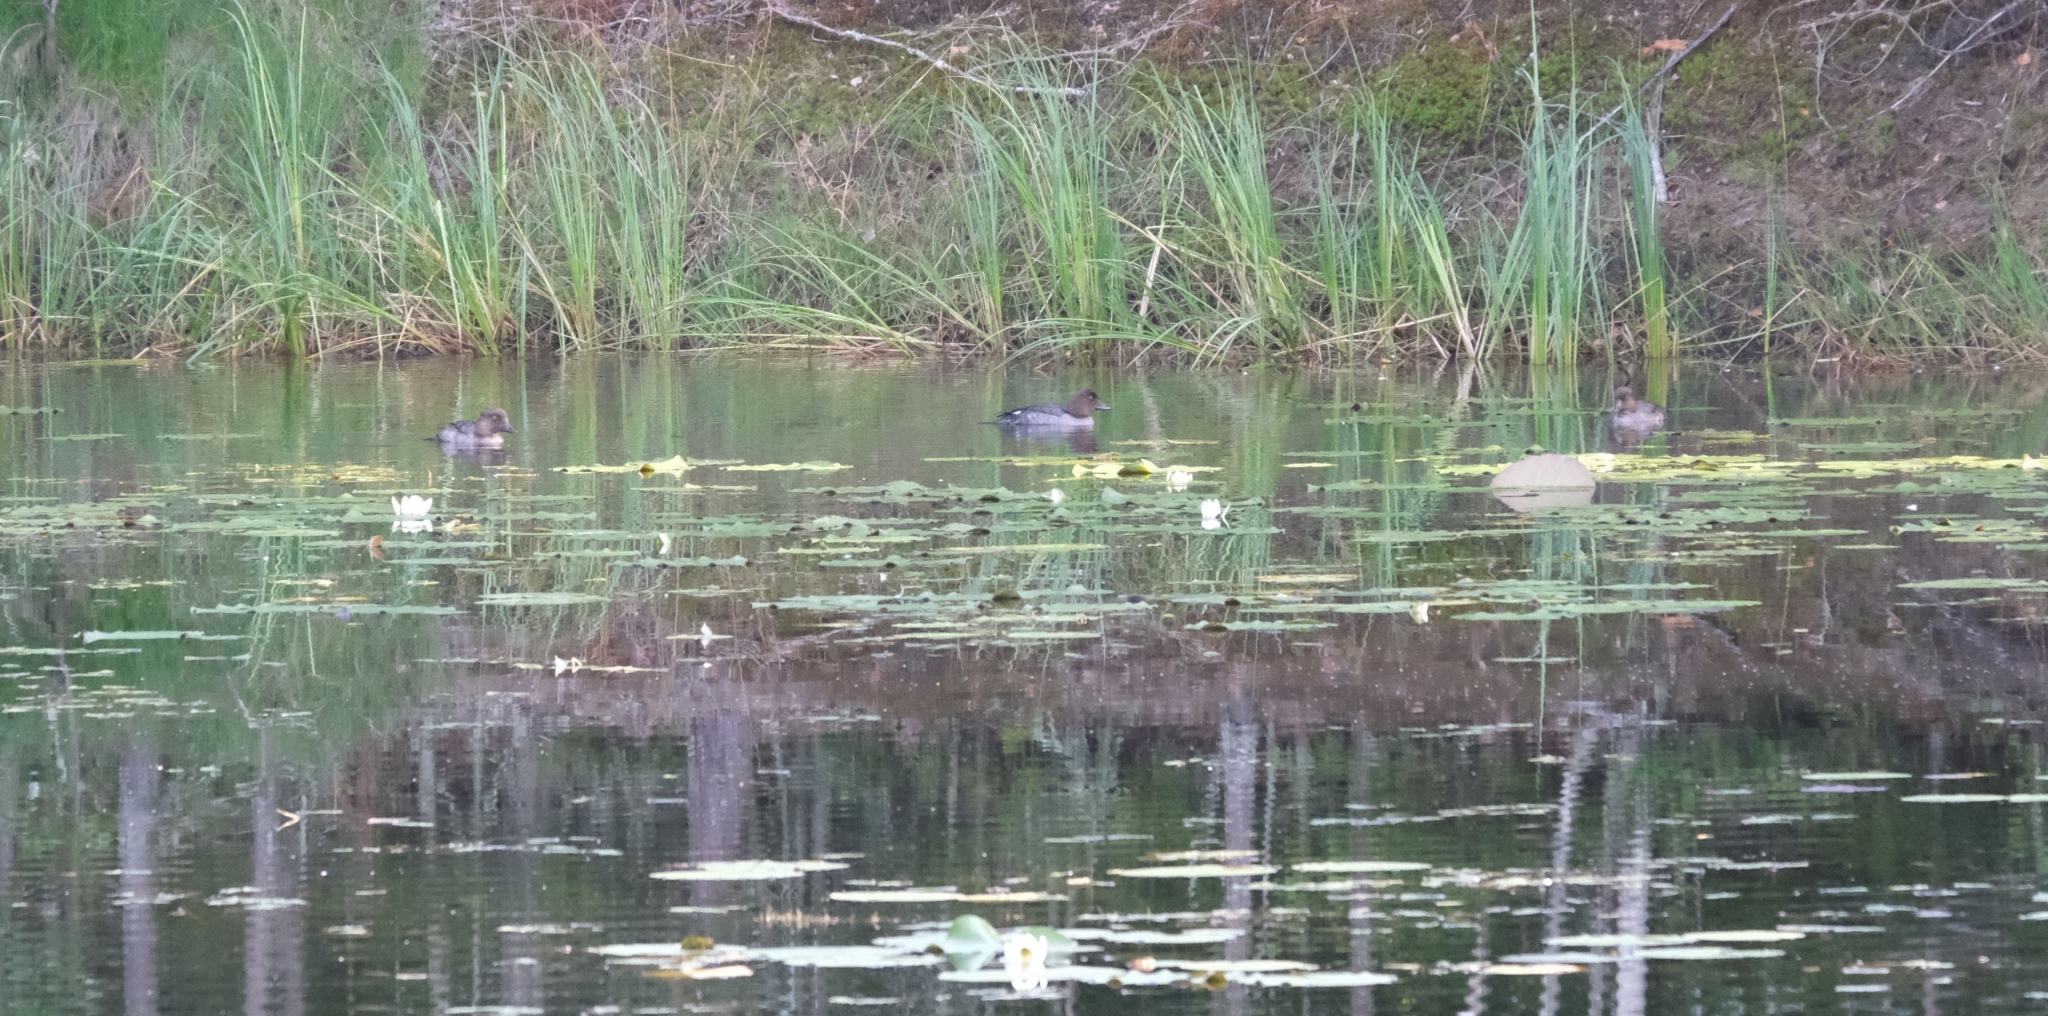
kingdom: Animalia
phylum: Chordata
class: Aves
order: Anseriformes
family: Anatidae
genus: Bucephala
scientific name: Bucephala clangula
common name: Common goldeneye
